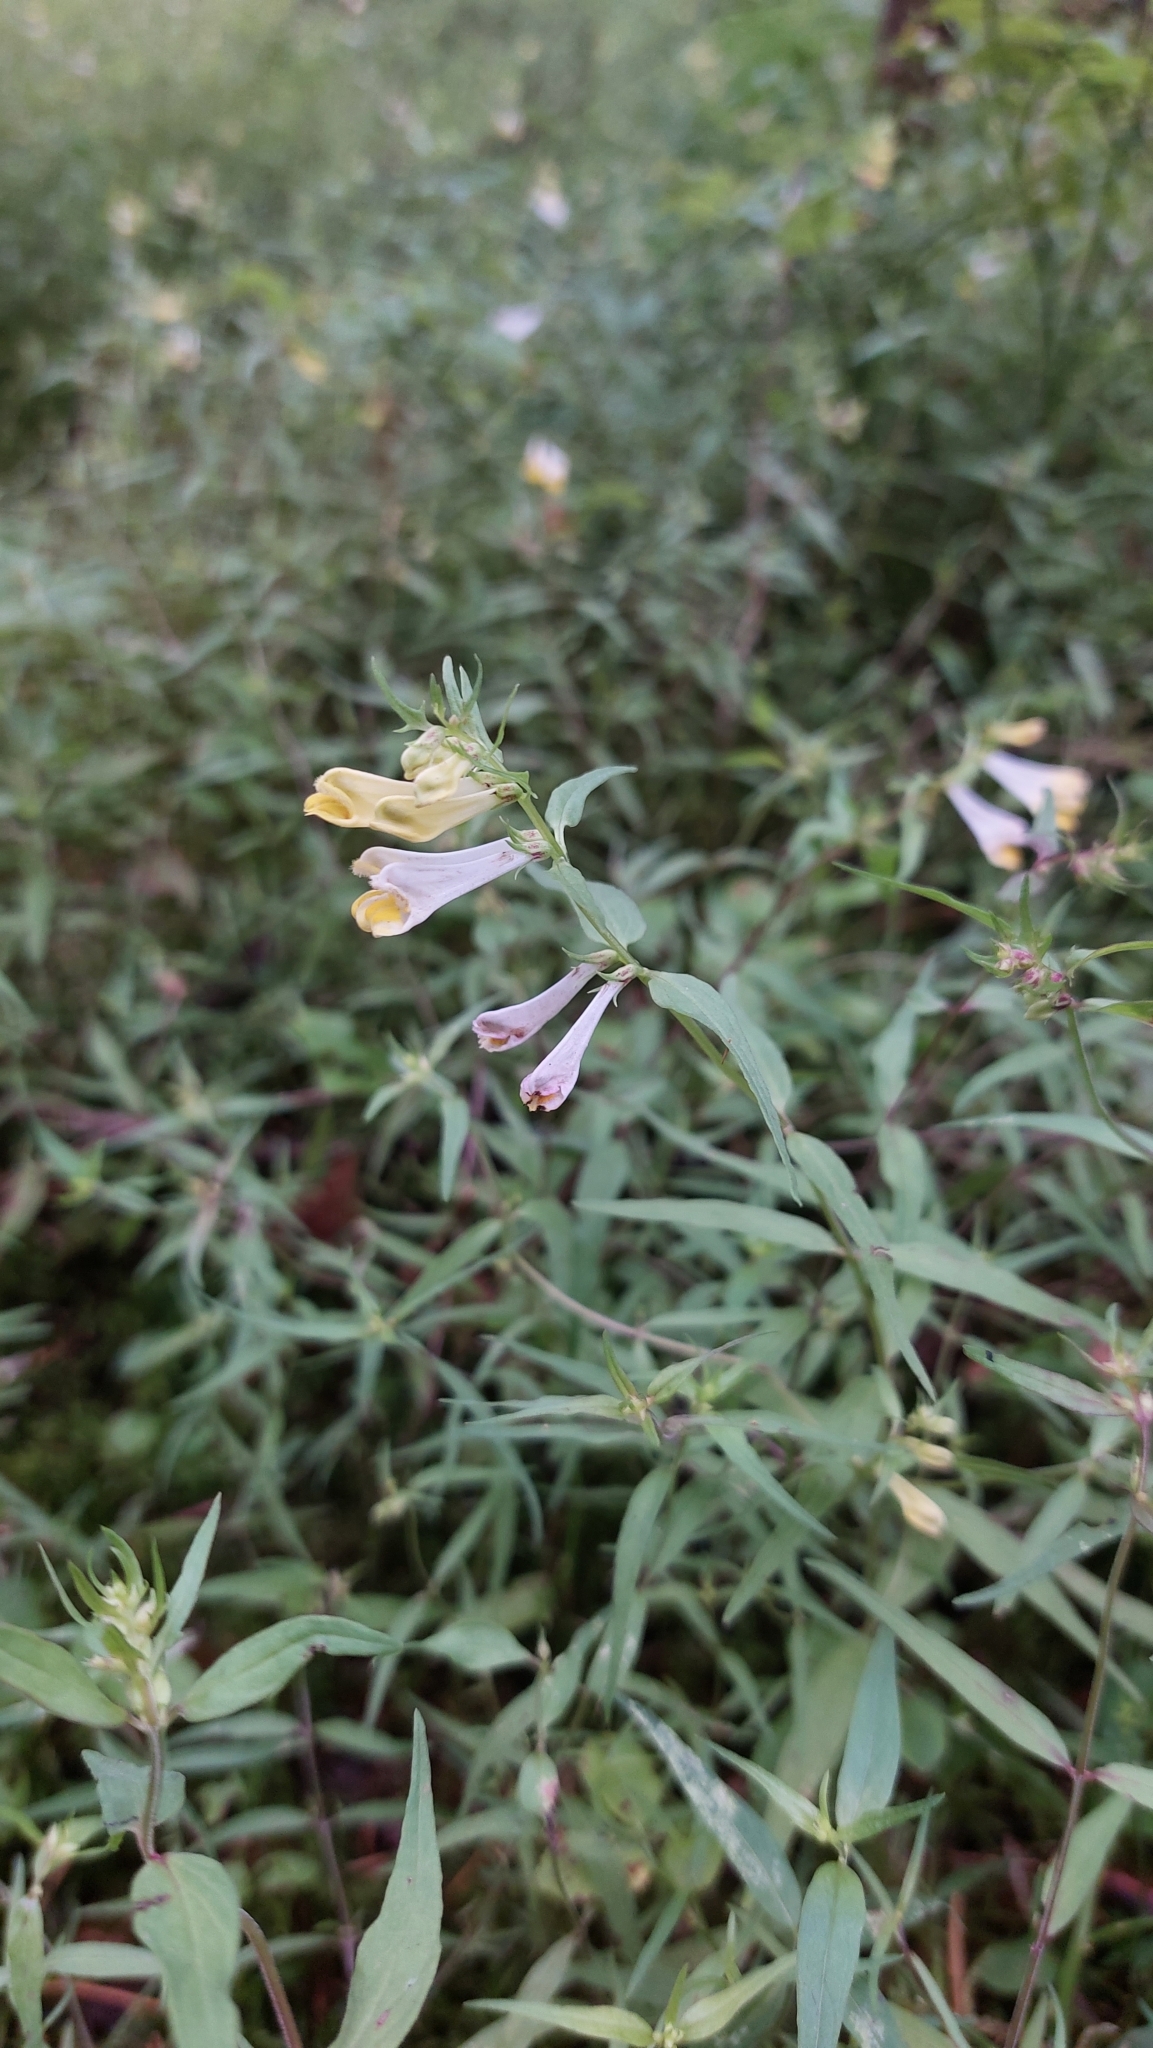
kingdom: Plantae
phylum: Tracheophyta
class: Magnoliopsida
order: Lamiales
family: Orobanchaceae
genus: Melampyrum
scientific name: Melampyrum pratense
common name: Common cow-wheat
